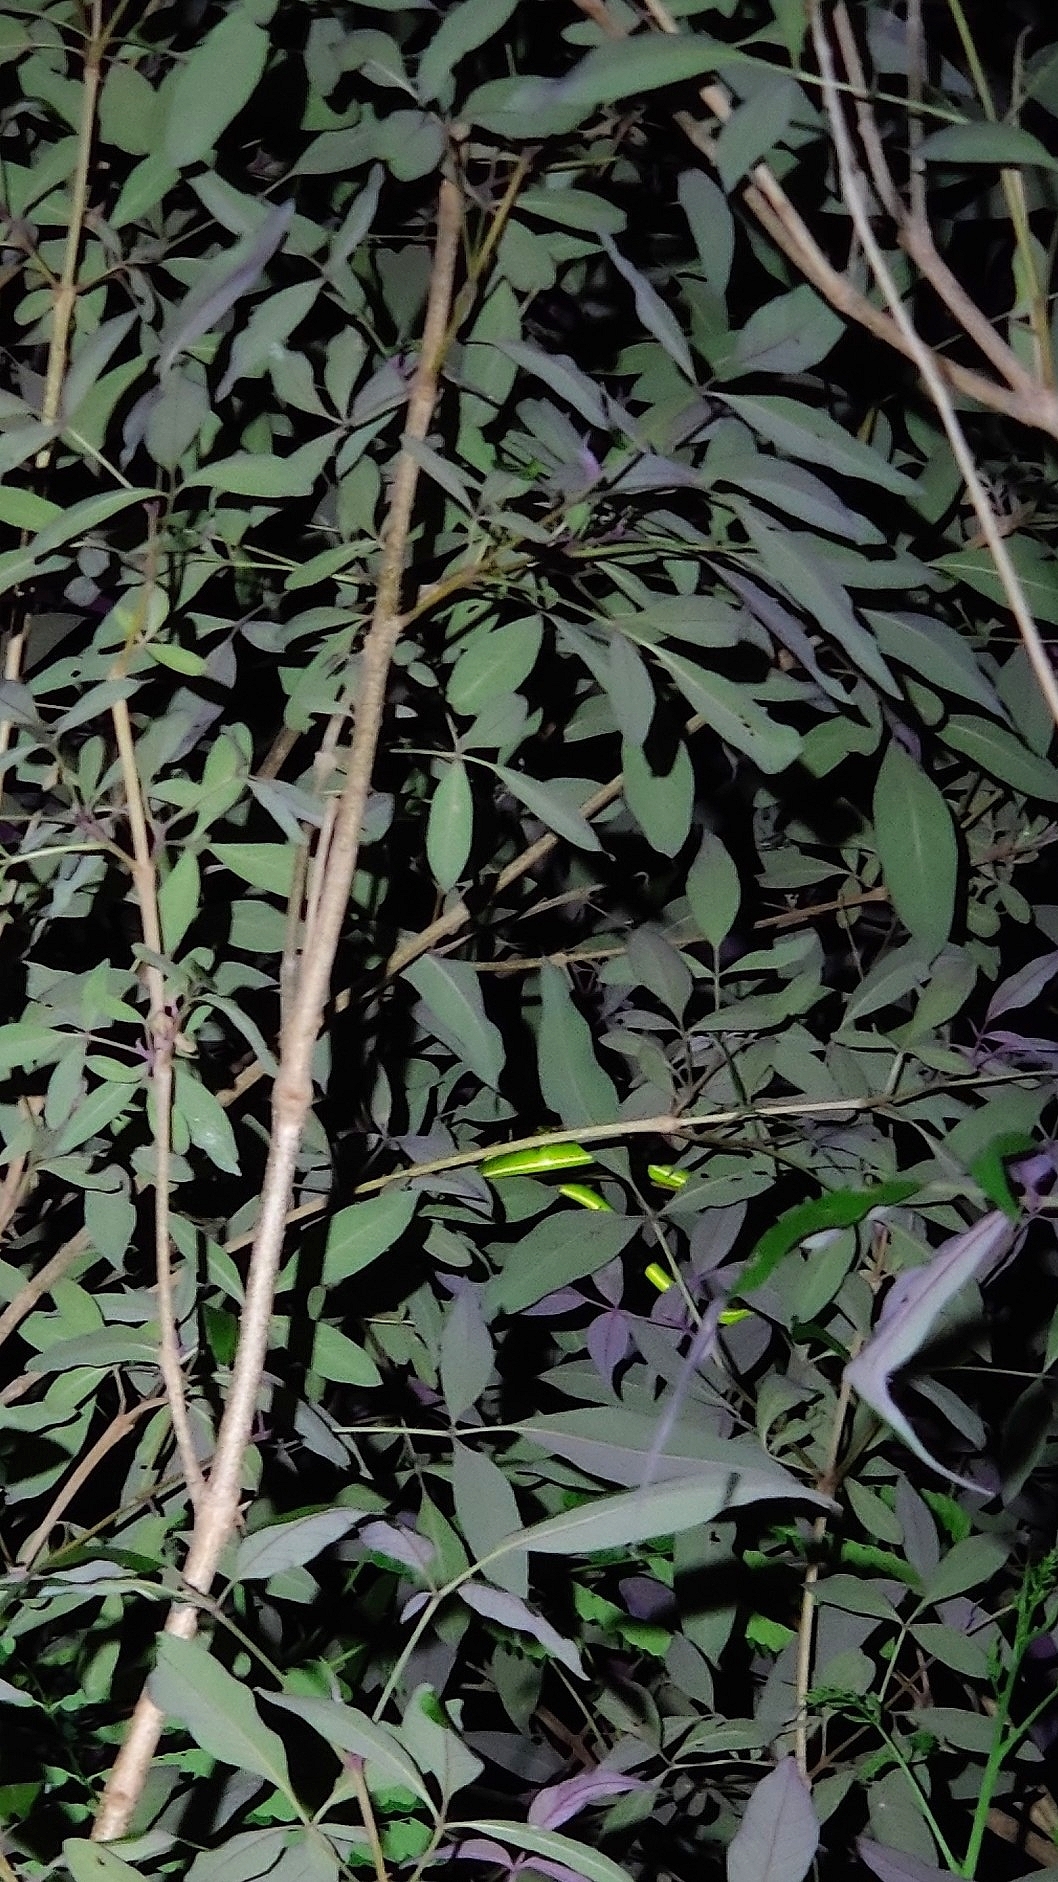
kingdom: Animalia
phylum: Chordata
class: Squamata
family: Colubridae
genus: Ahaetulla
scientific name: Ahaetulla oxyrhyncha
